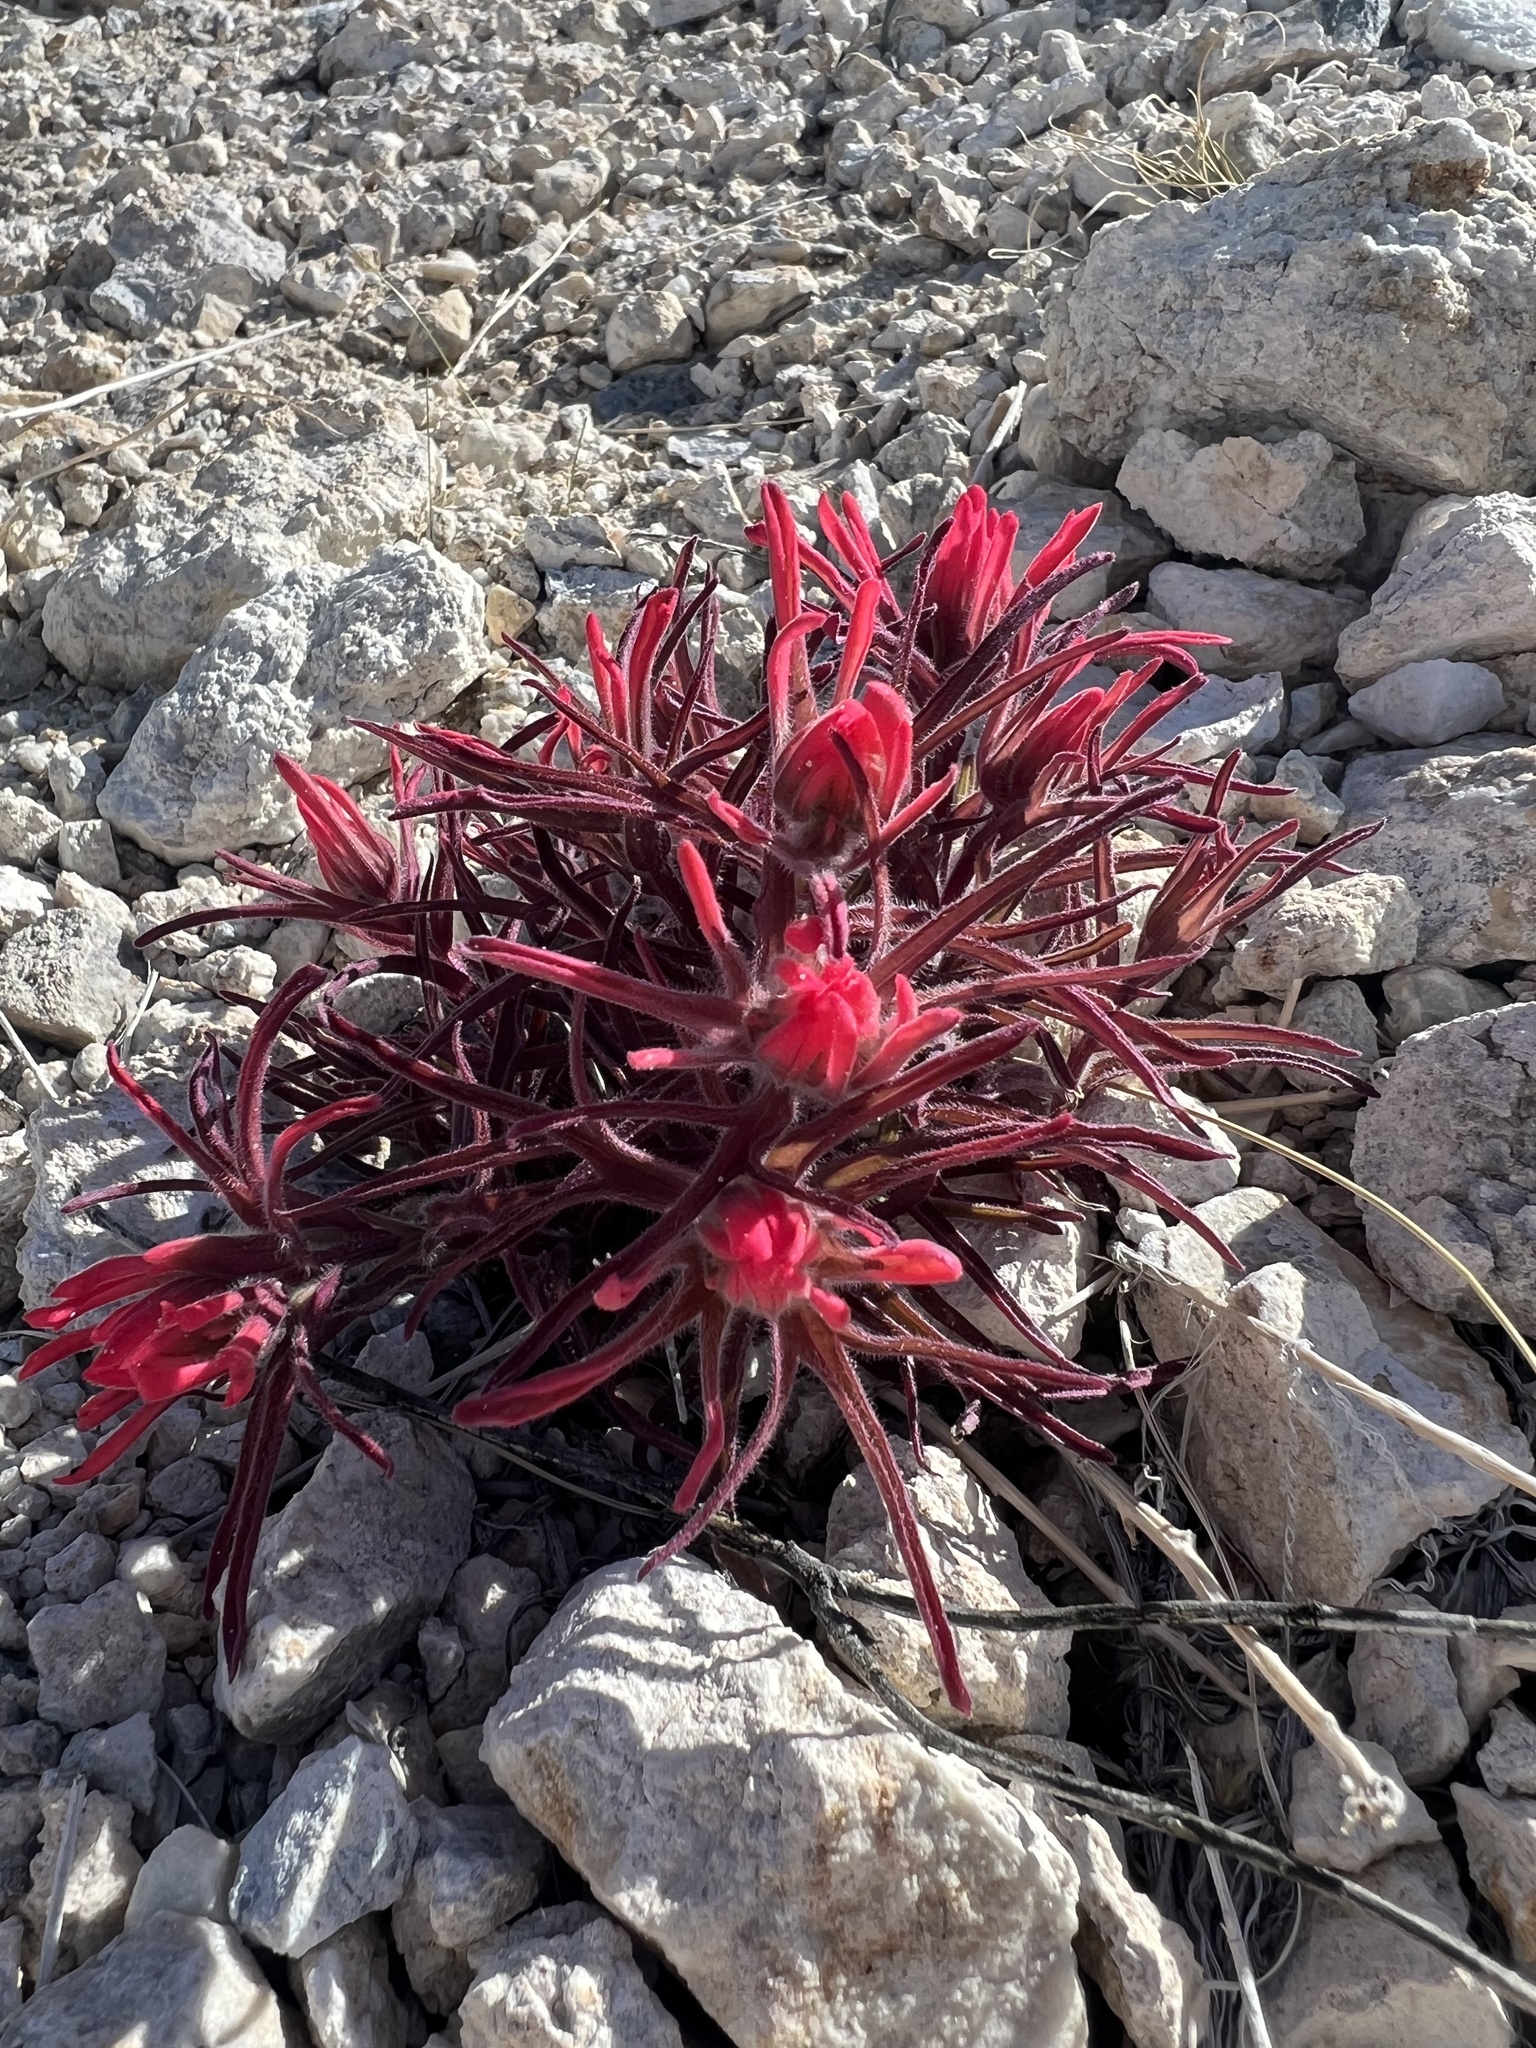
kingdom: Plantae
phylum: Tracheophyta
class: Magnoliopsida
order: Lamiales
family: Orobanchaceae
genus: Castilleja
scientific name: Castilleja chromosa
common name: Desert paintbrush
